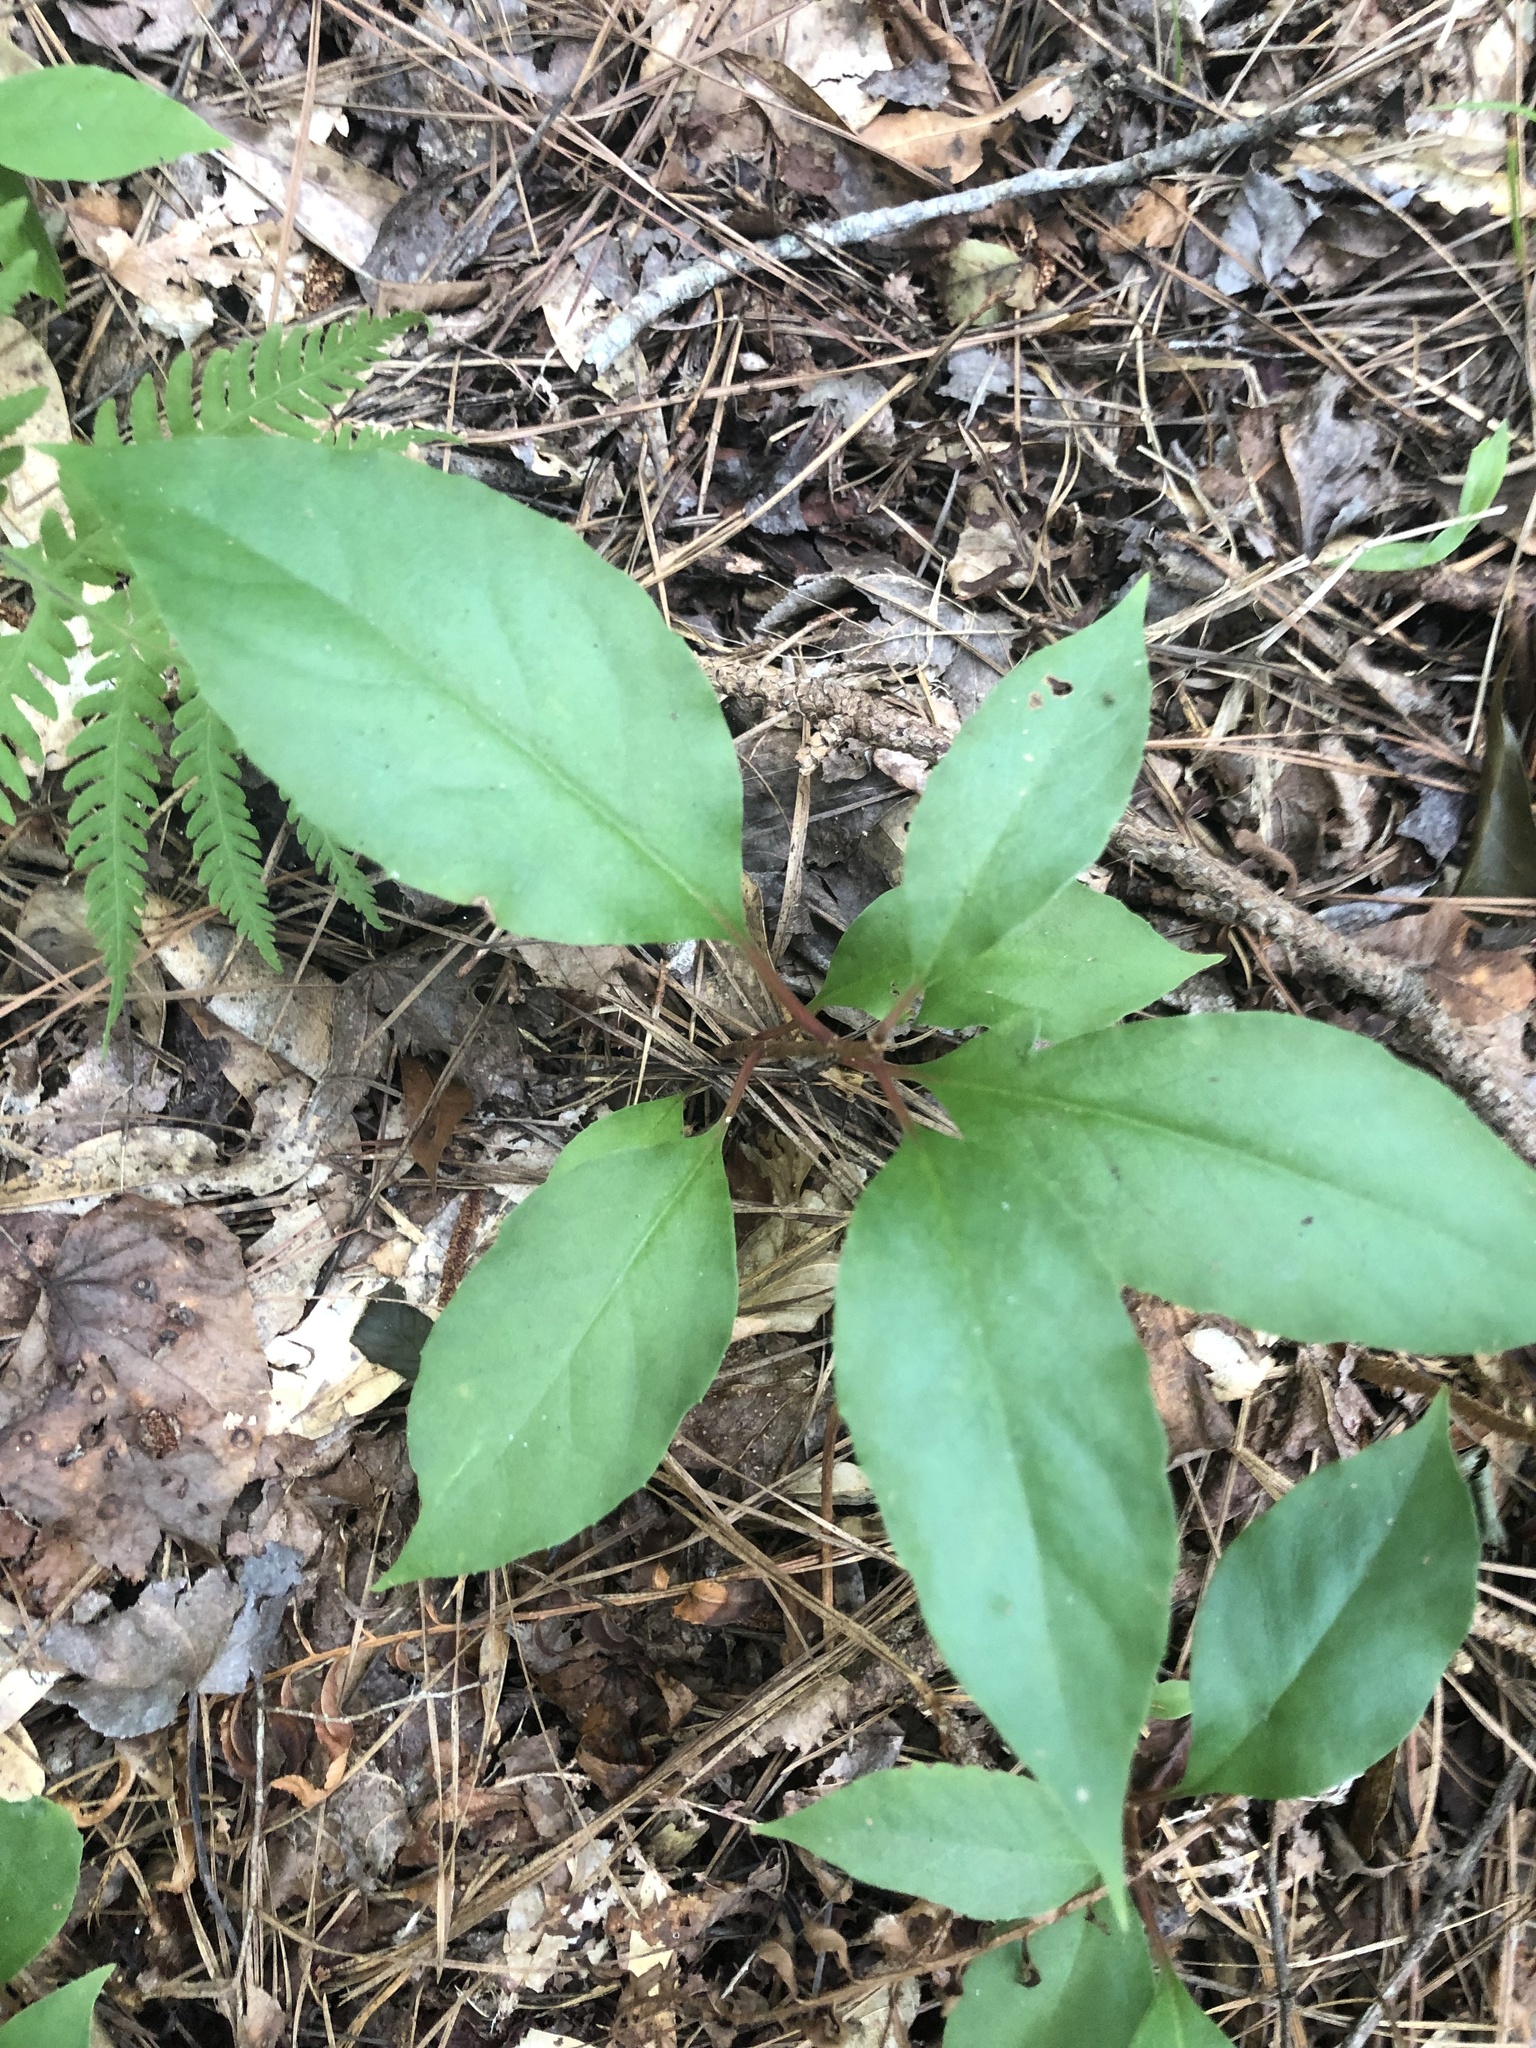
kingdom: Plantae
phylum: Tracheophyta
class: Magnoliopsida
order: Austrobaileyales
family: Schisandraceae
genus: Schisandra
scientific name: Schisandra glabra
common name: Bay-starvine
